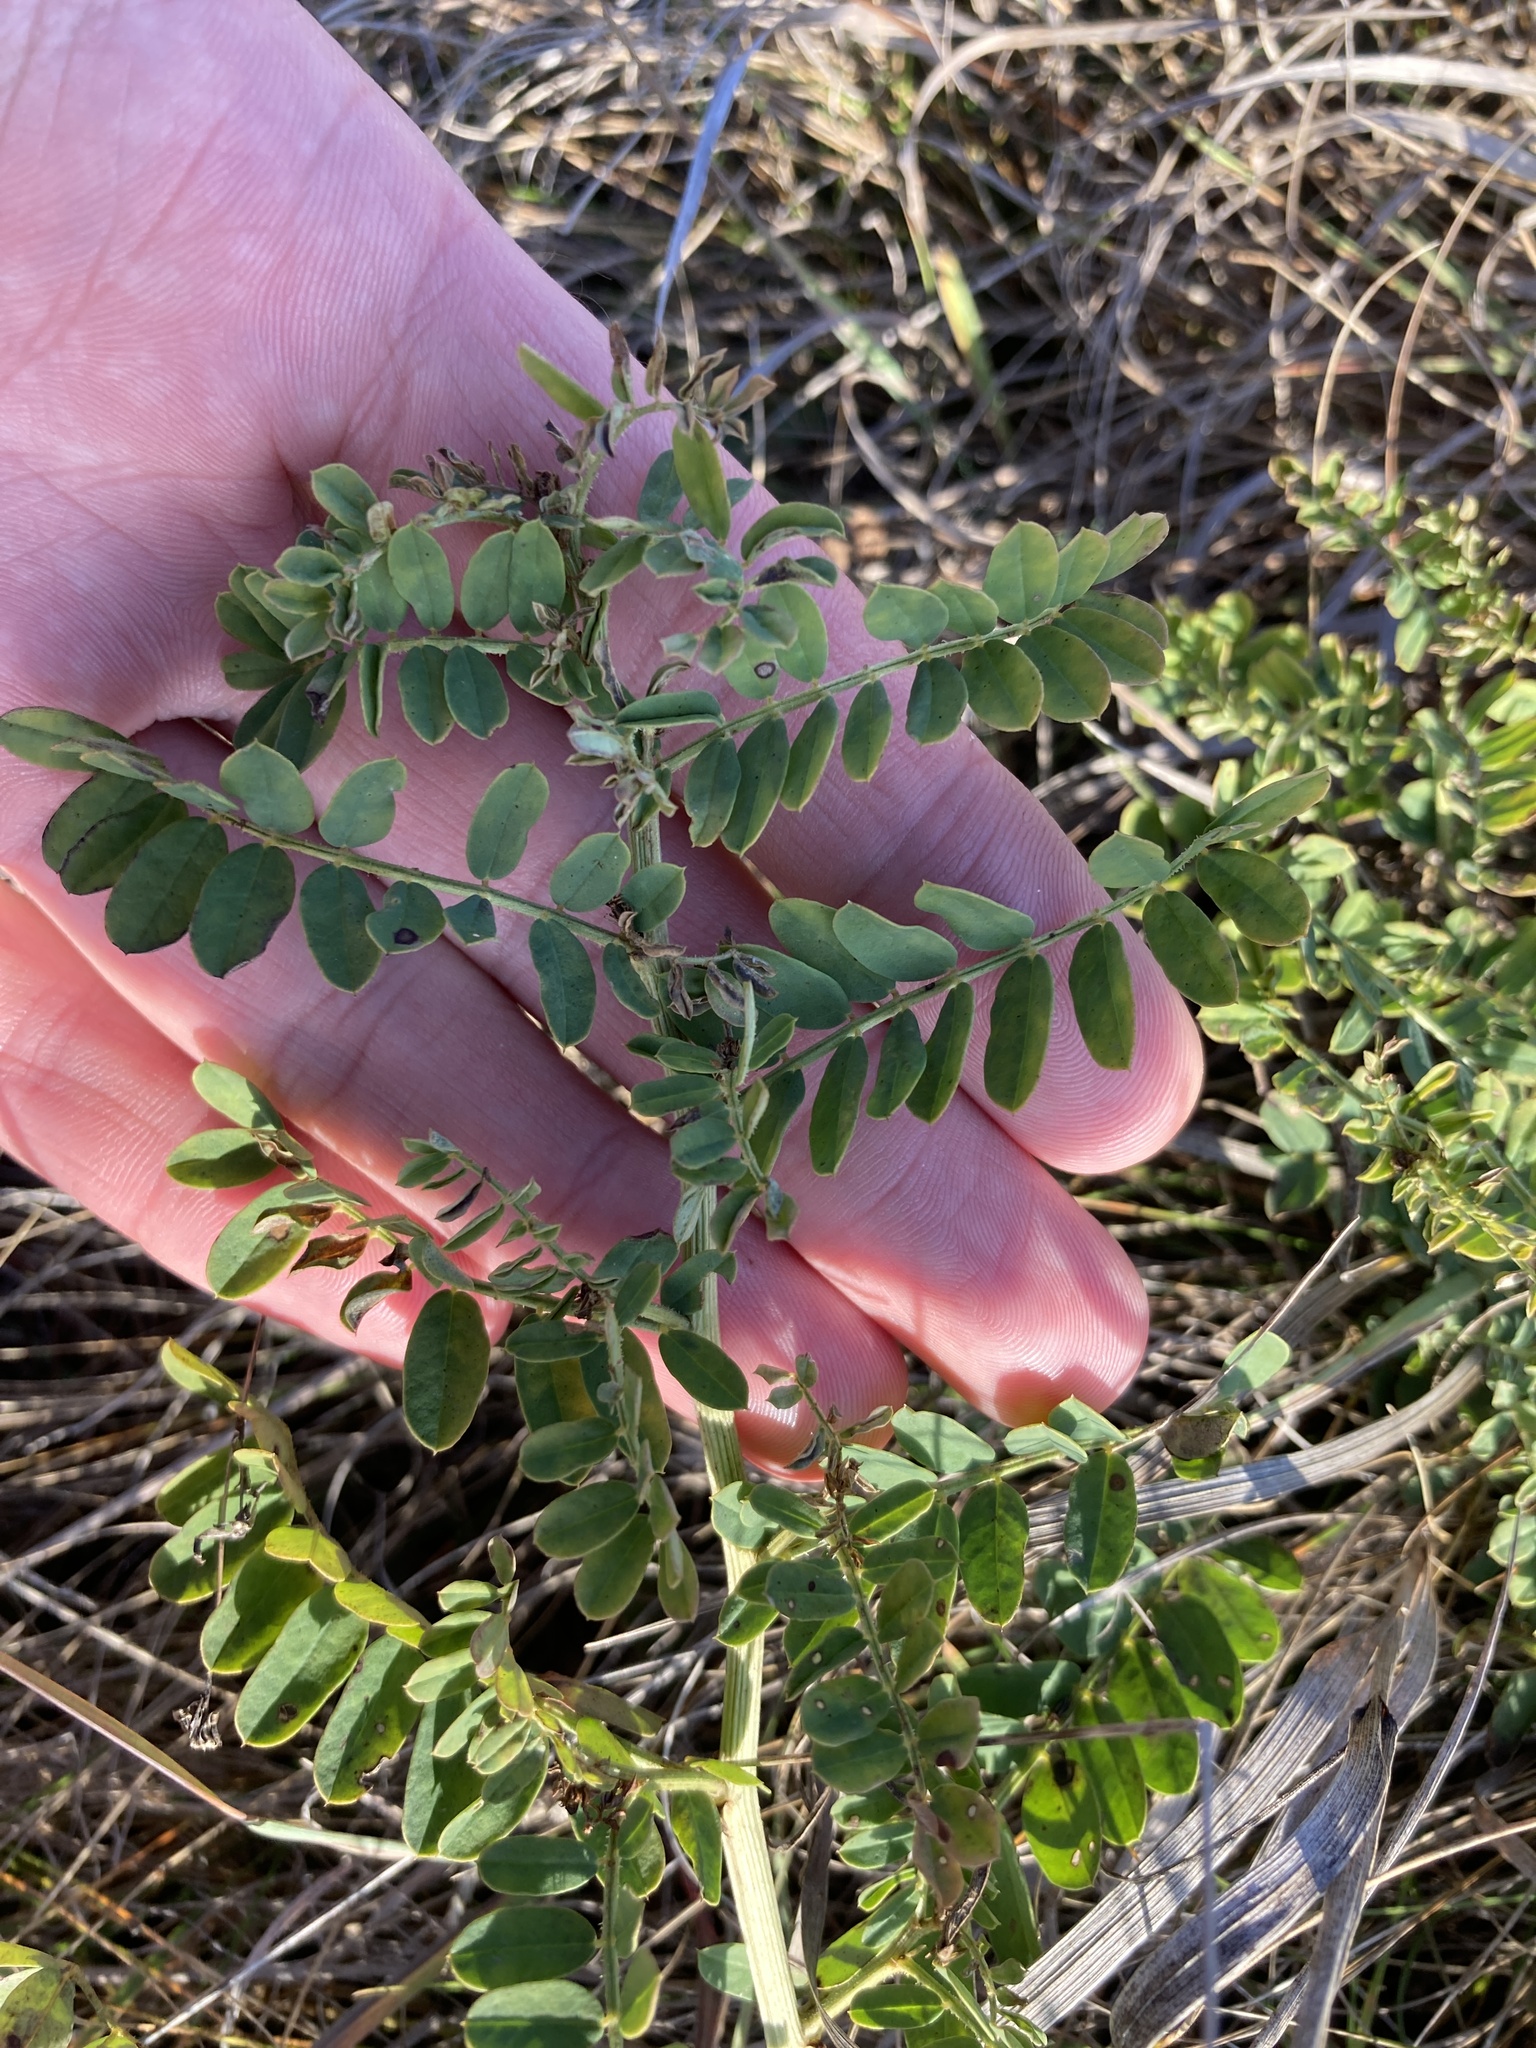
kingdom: Plantae
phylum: Tracheophyta
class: Magnoliopsida
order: Fabales
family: Fabaceae
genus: Coronilla
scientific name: Coronilla varia
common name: Crownvetch
